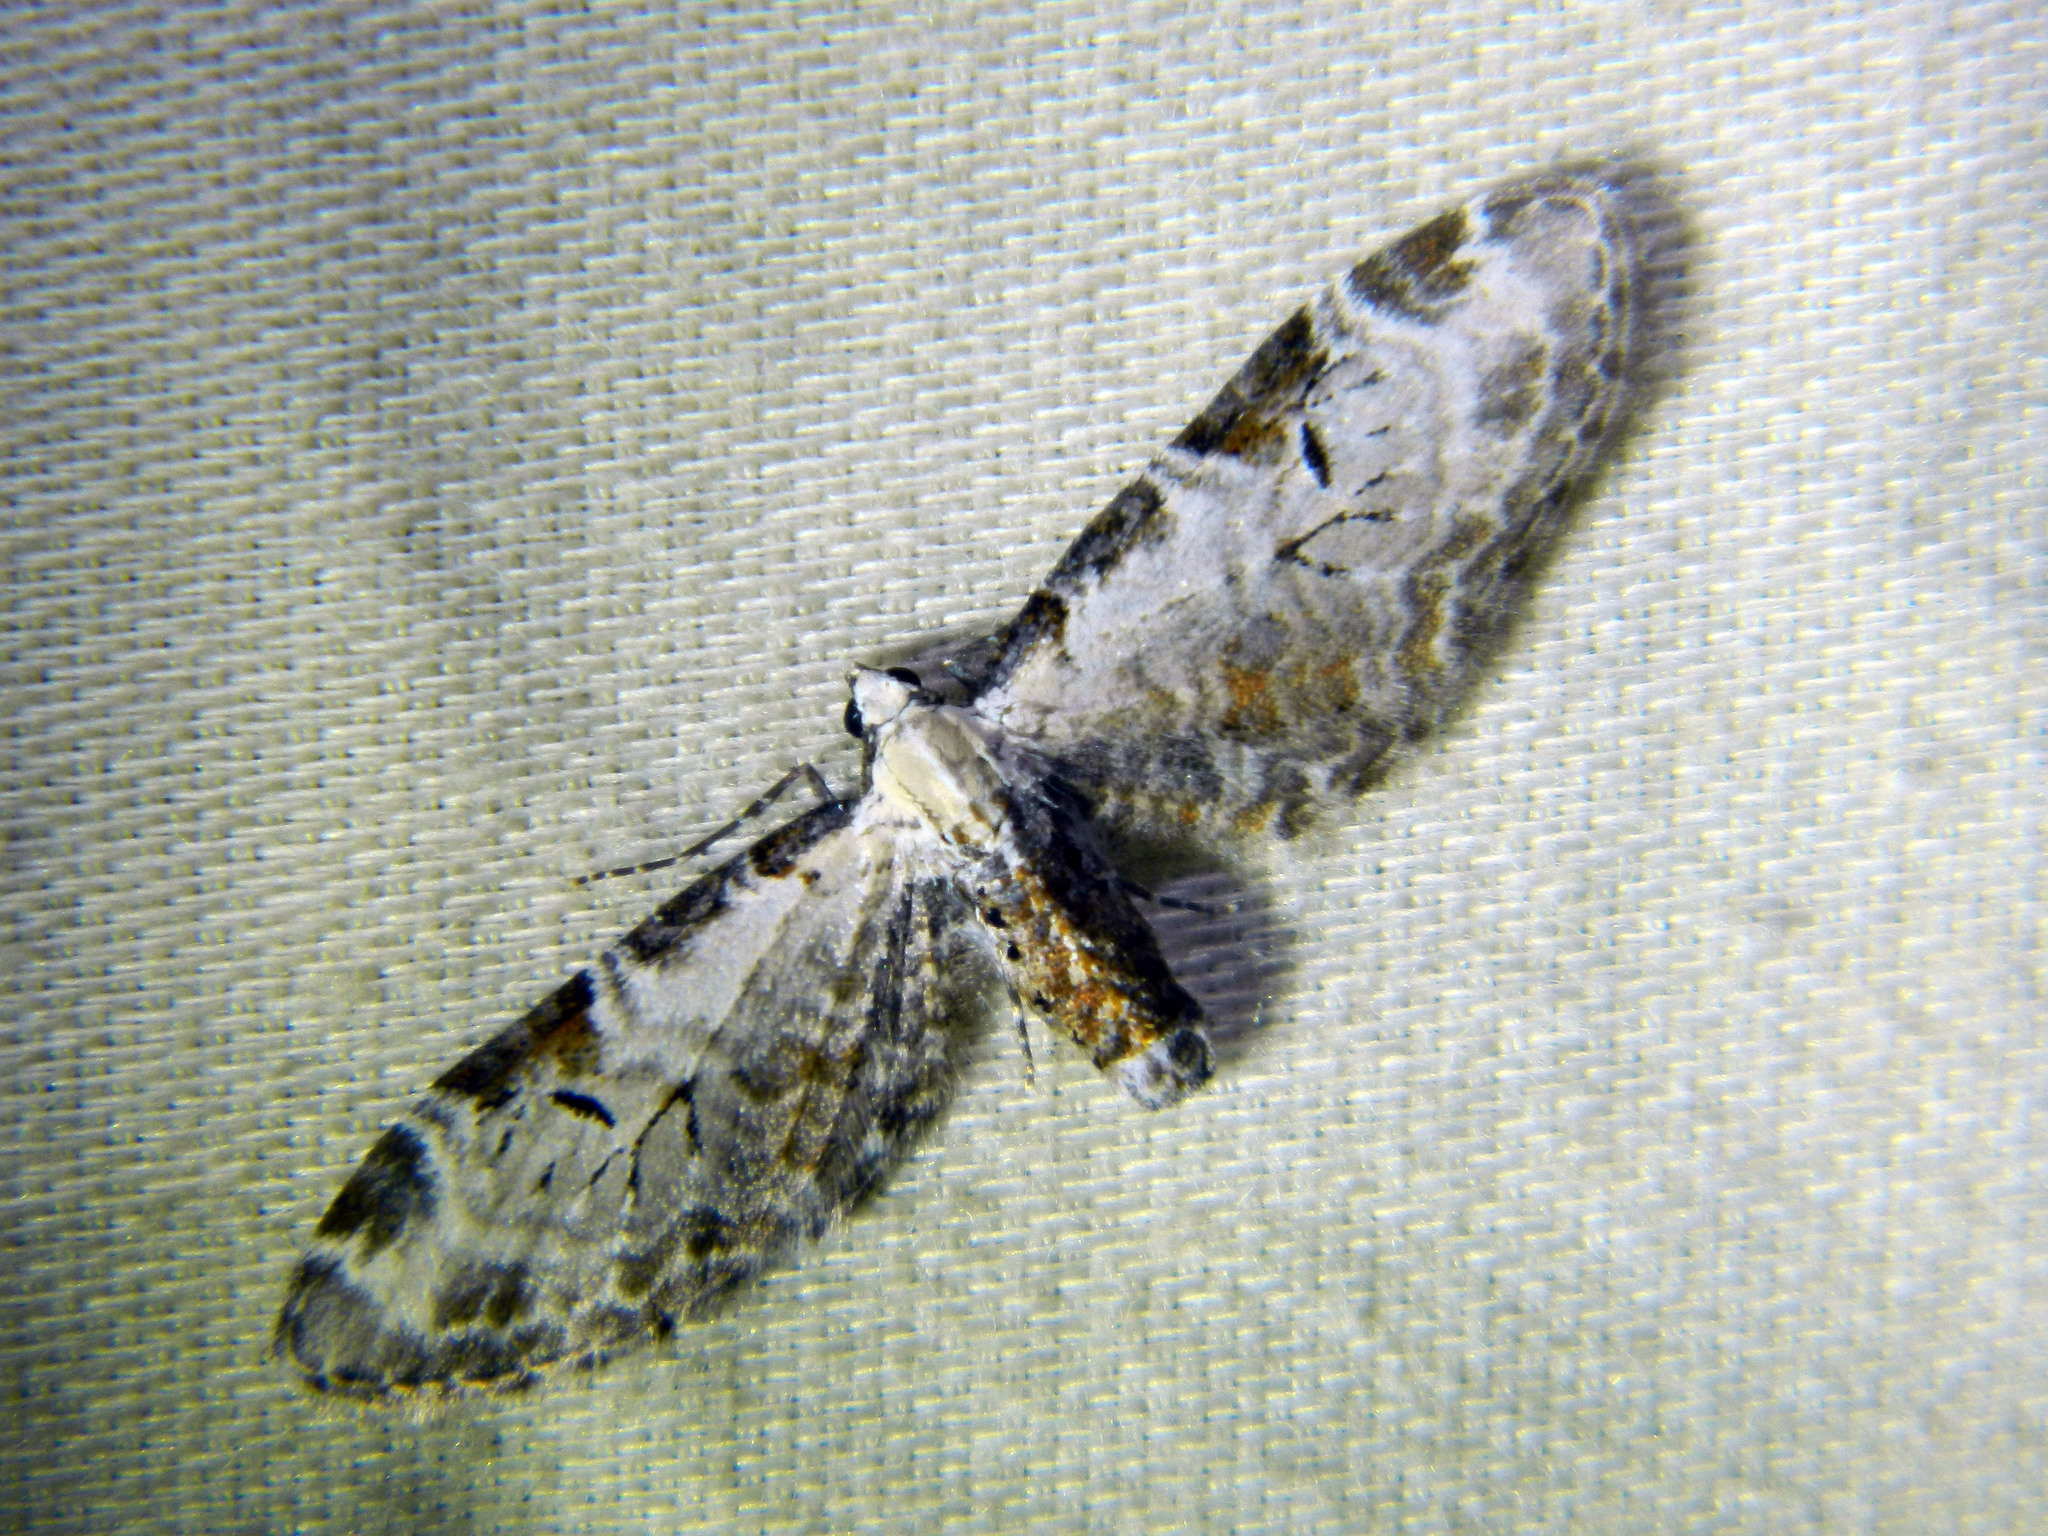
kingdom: Animalia
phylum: Arthropoda
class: Insecta
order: Lepidoptera
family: Geometridae
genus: Eupithecia
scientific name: Eupithecia ravocostaliata
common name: Great varigated pug
